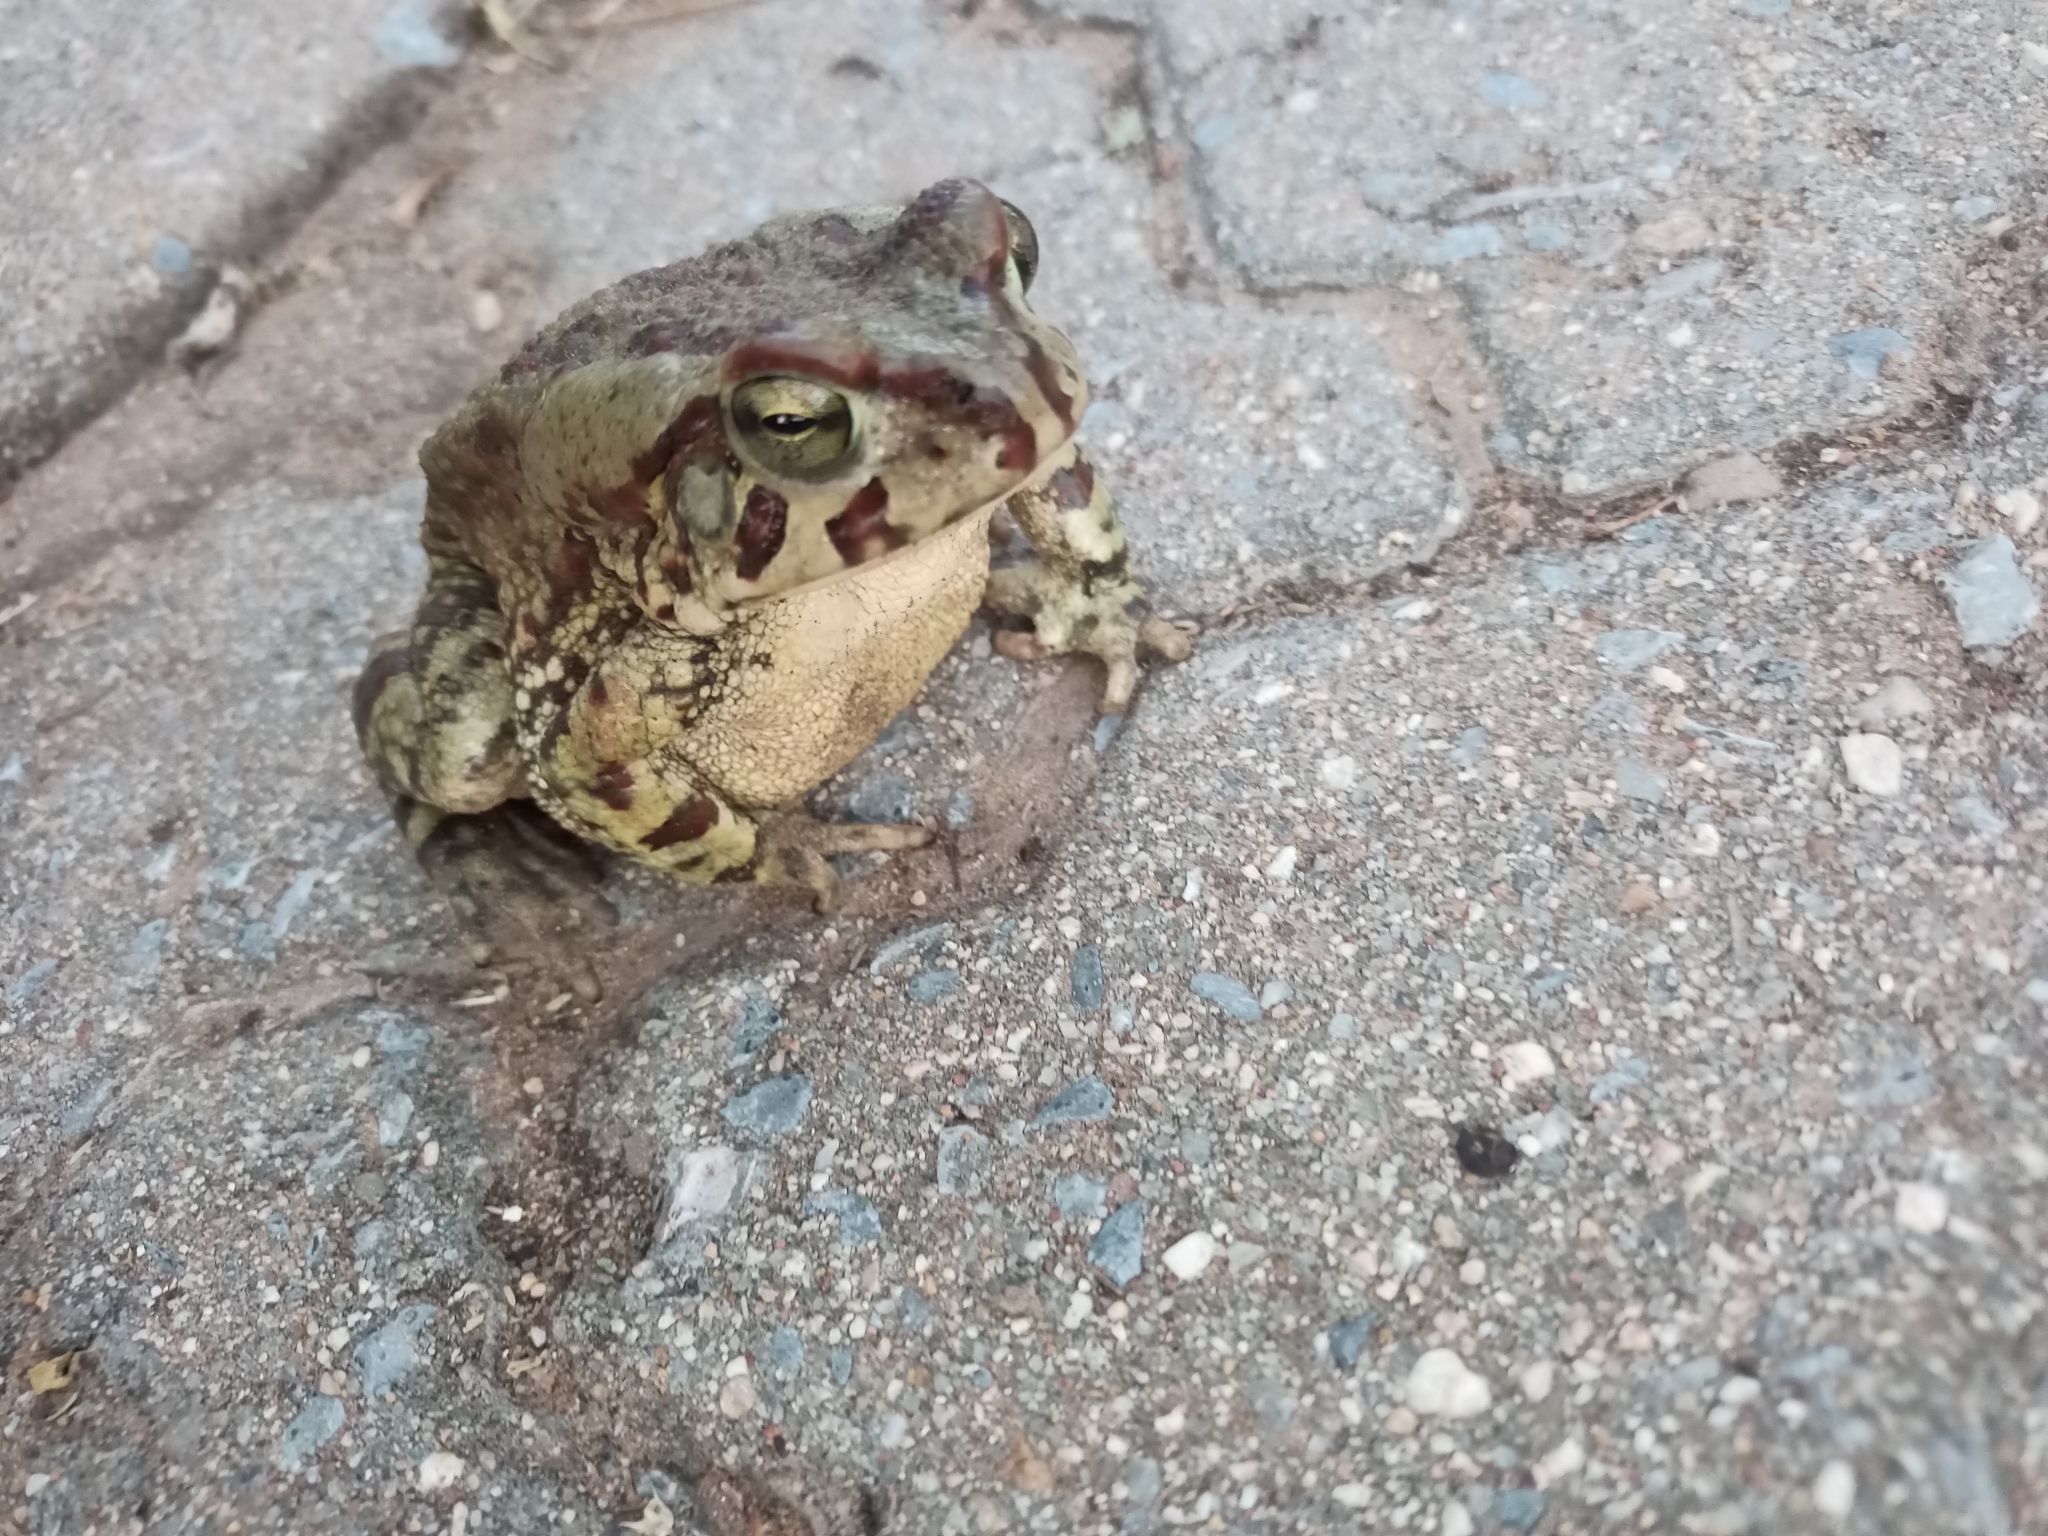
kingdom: Animalia
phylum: Chordata
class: Amphibia
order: Anura
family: Bufonidae
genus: Sclerophrys
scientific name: Sclerophrys poweri
